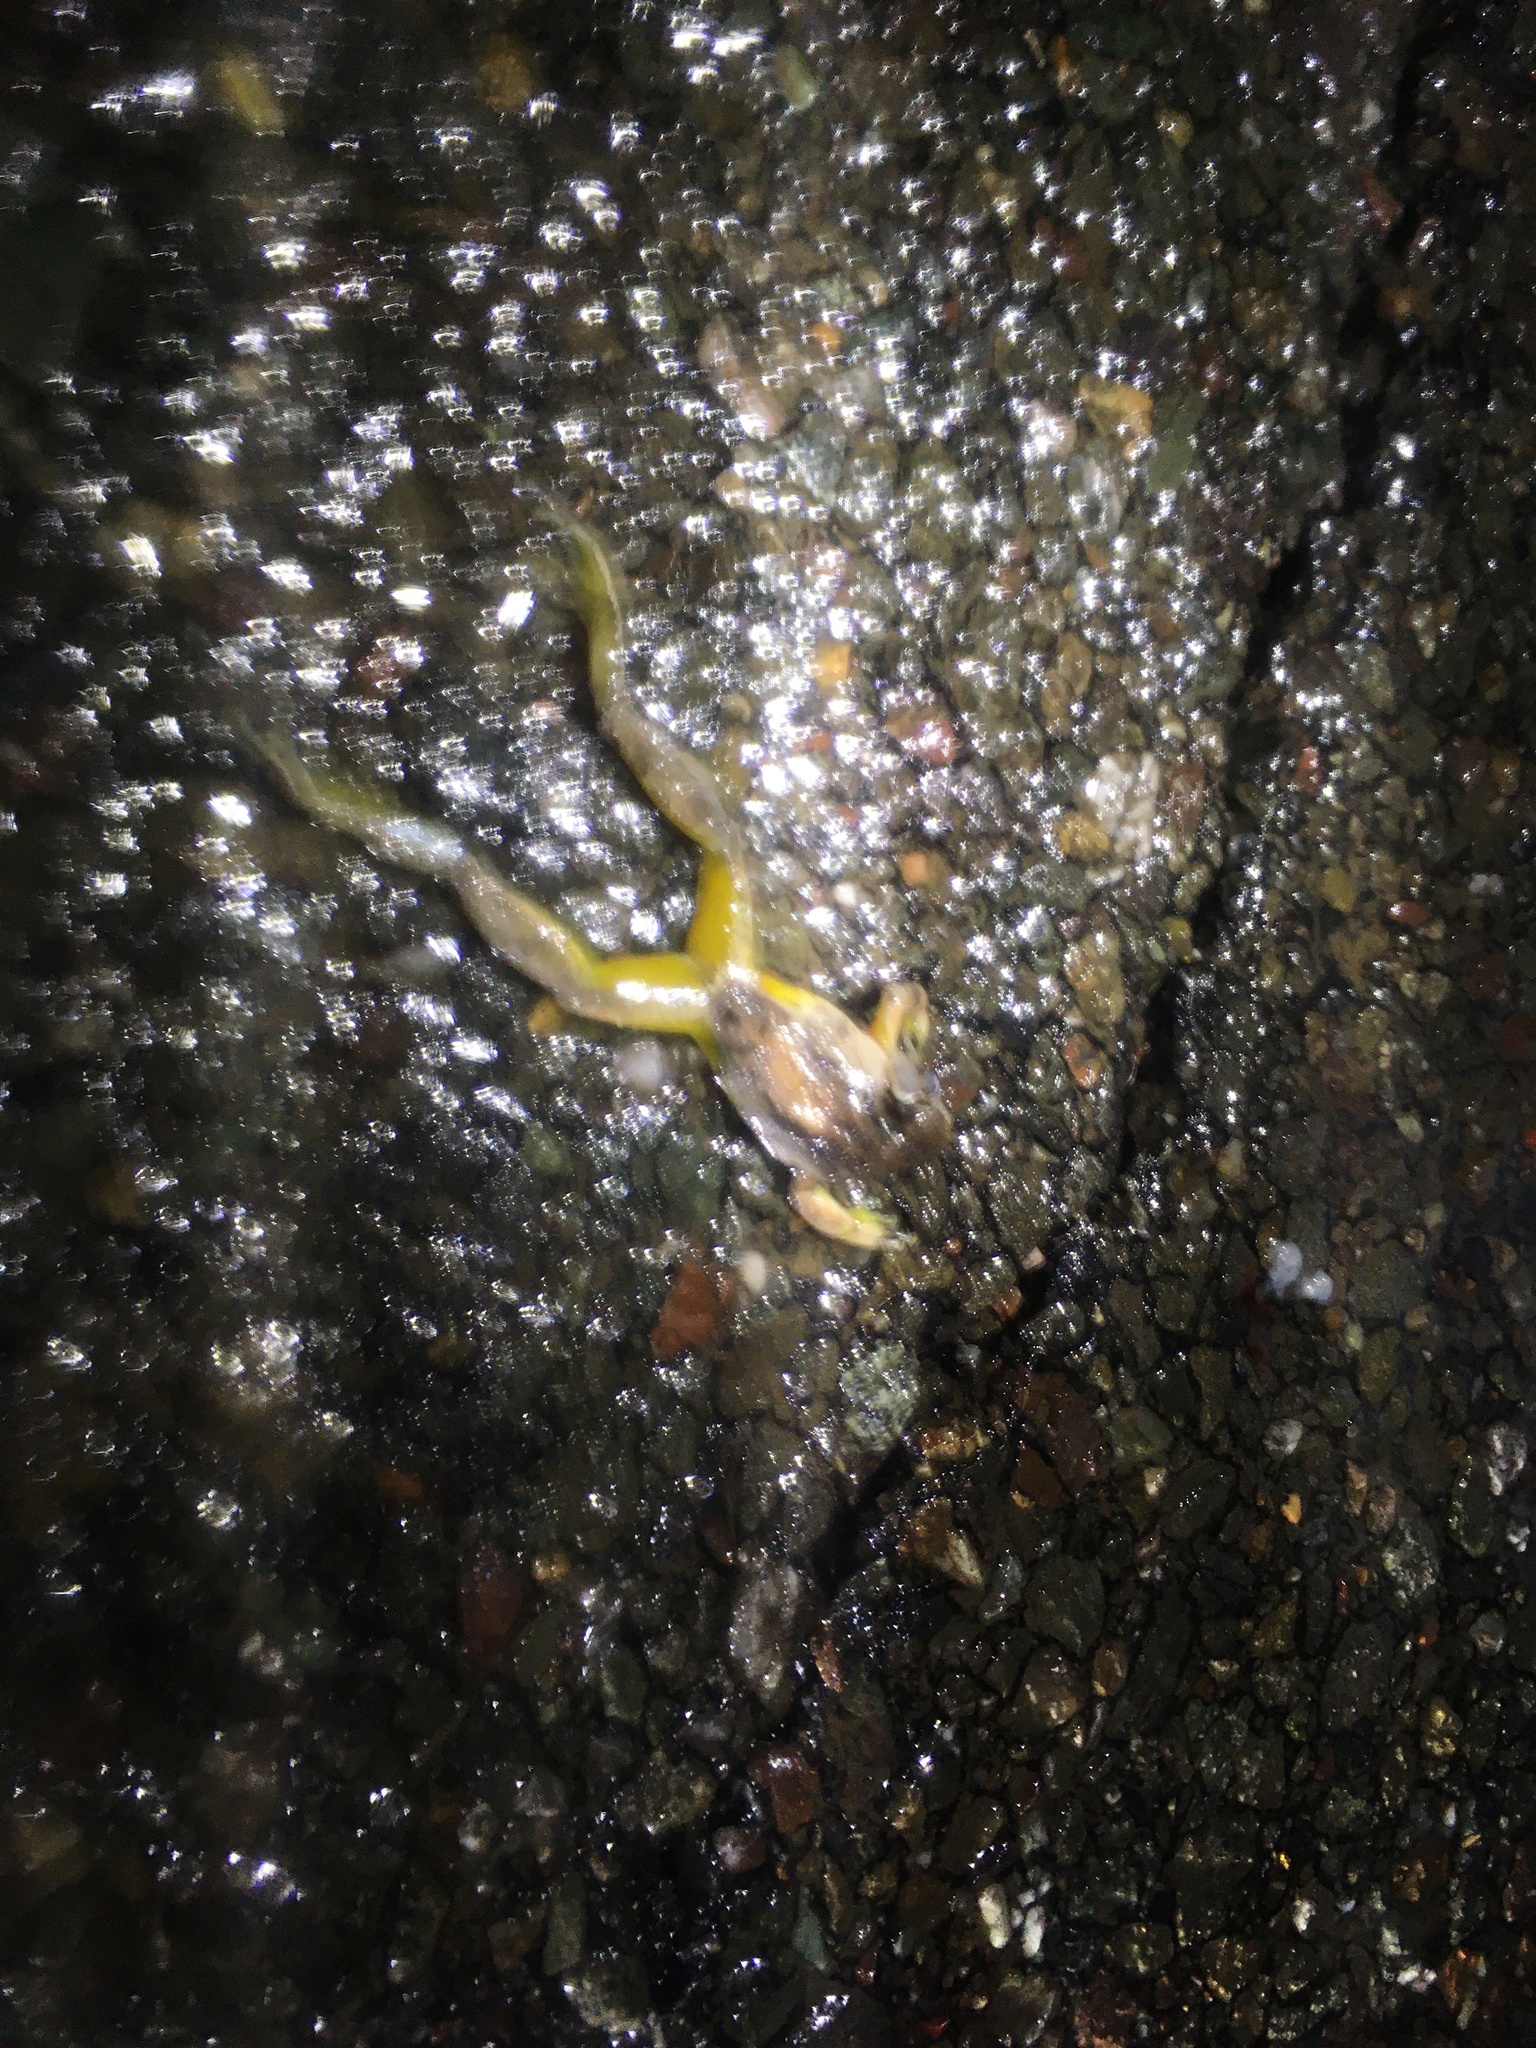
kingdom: Animalia
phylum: Chordata
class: Amphibia
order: Anura
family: Hylidae
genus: Pseudacris
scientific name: Pseudacris regilla
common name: Pacific chorus frog
